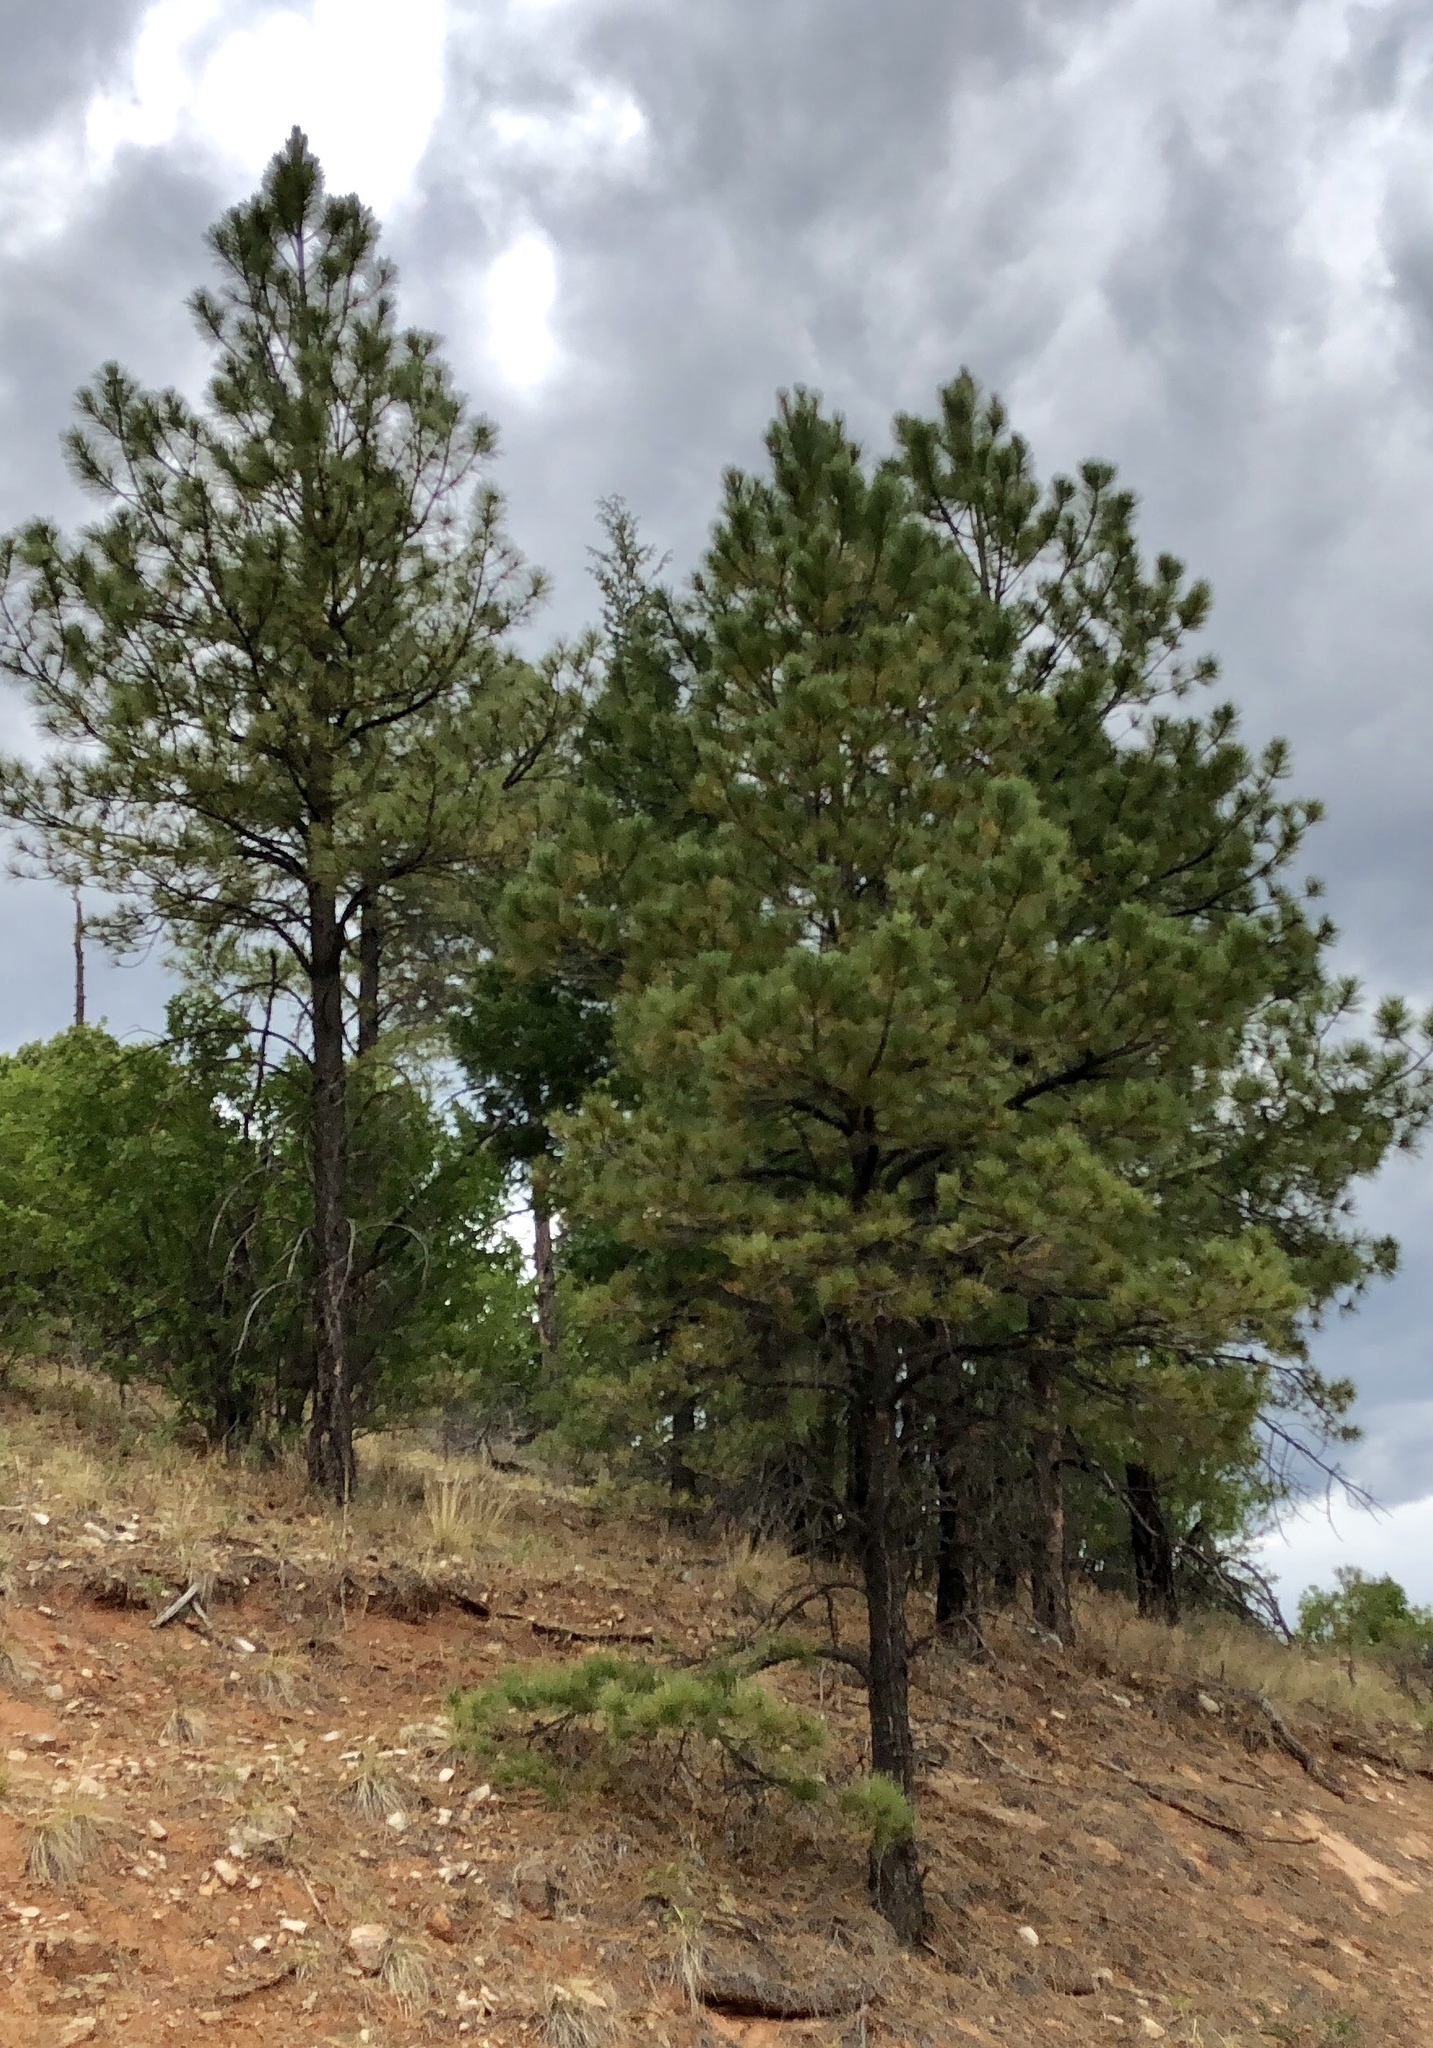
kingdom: Plantae
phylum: Tracheophyta
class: Pinopsida
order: Pinales
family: Pinaceae
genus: Pinus
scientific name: Pinus ponderosa
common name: Western yellow-pine
